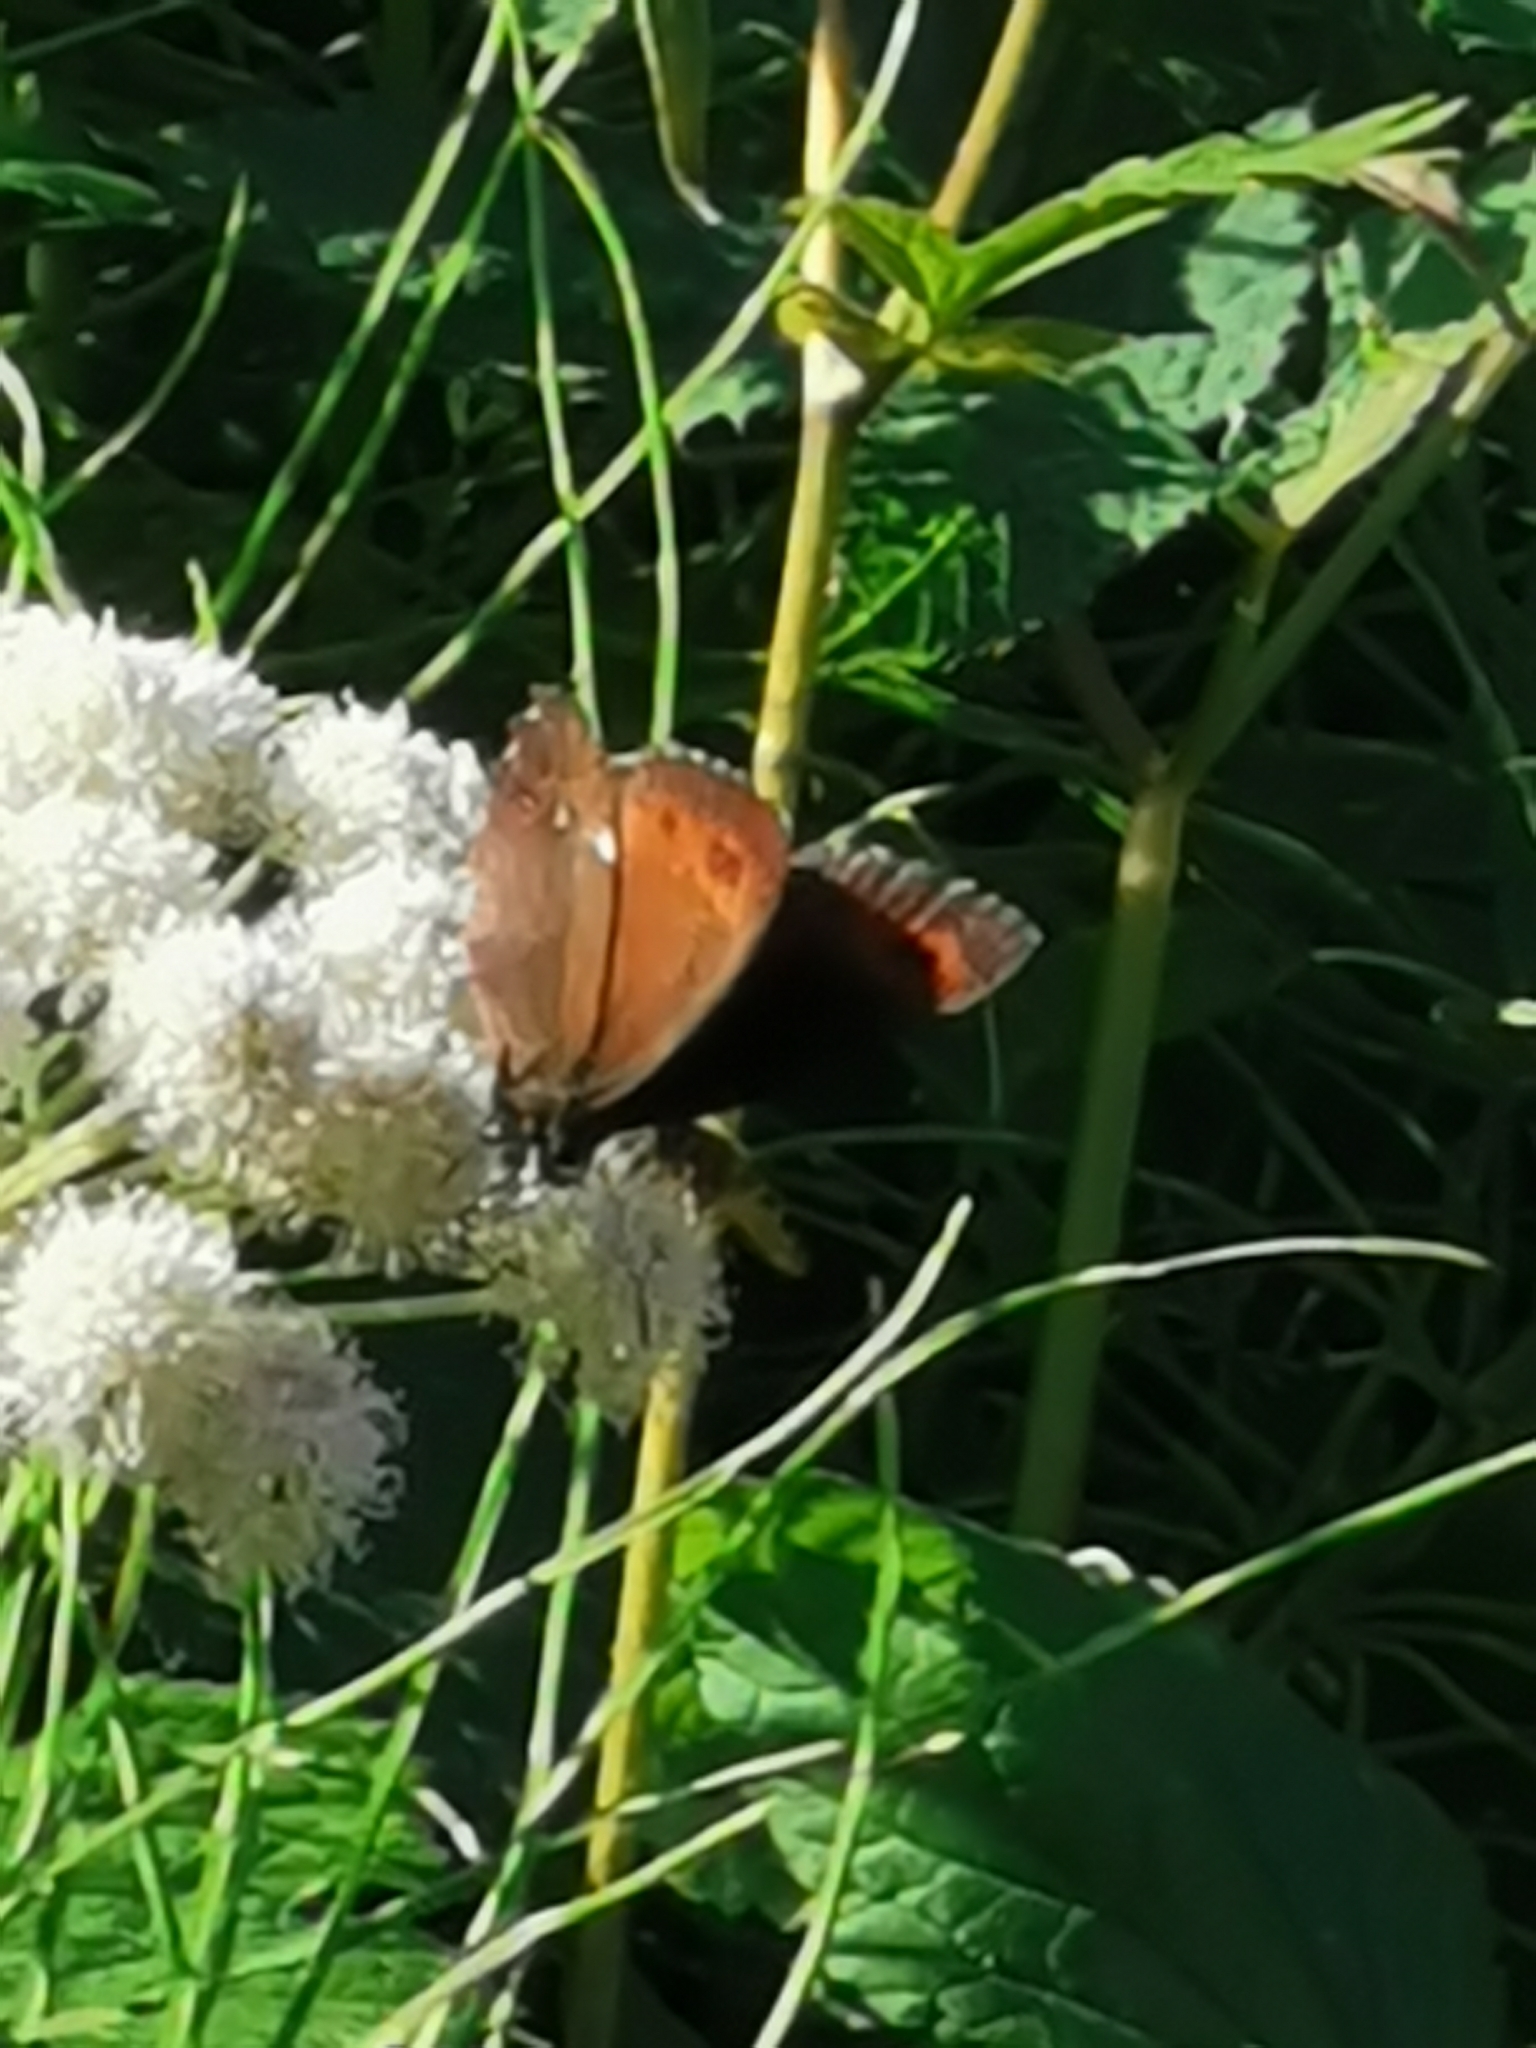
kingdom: Animalia
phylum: Arthropoda
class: Insecta
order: Lepidoptera
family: Nymphalidae
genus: Erebia
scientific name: Erebia ligea
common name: Arran brown
